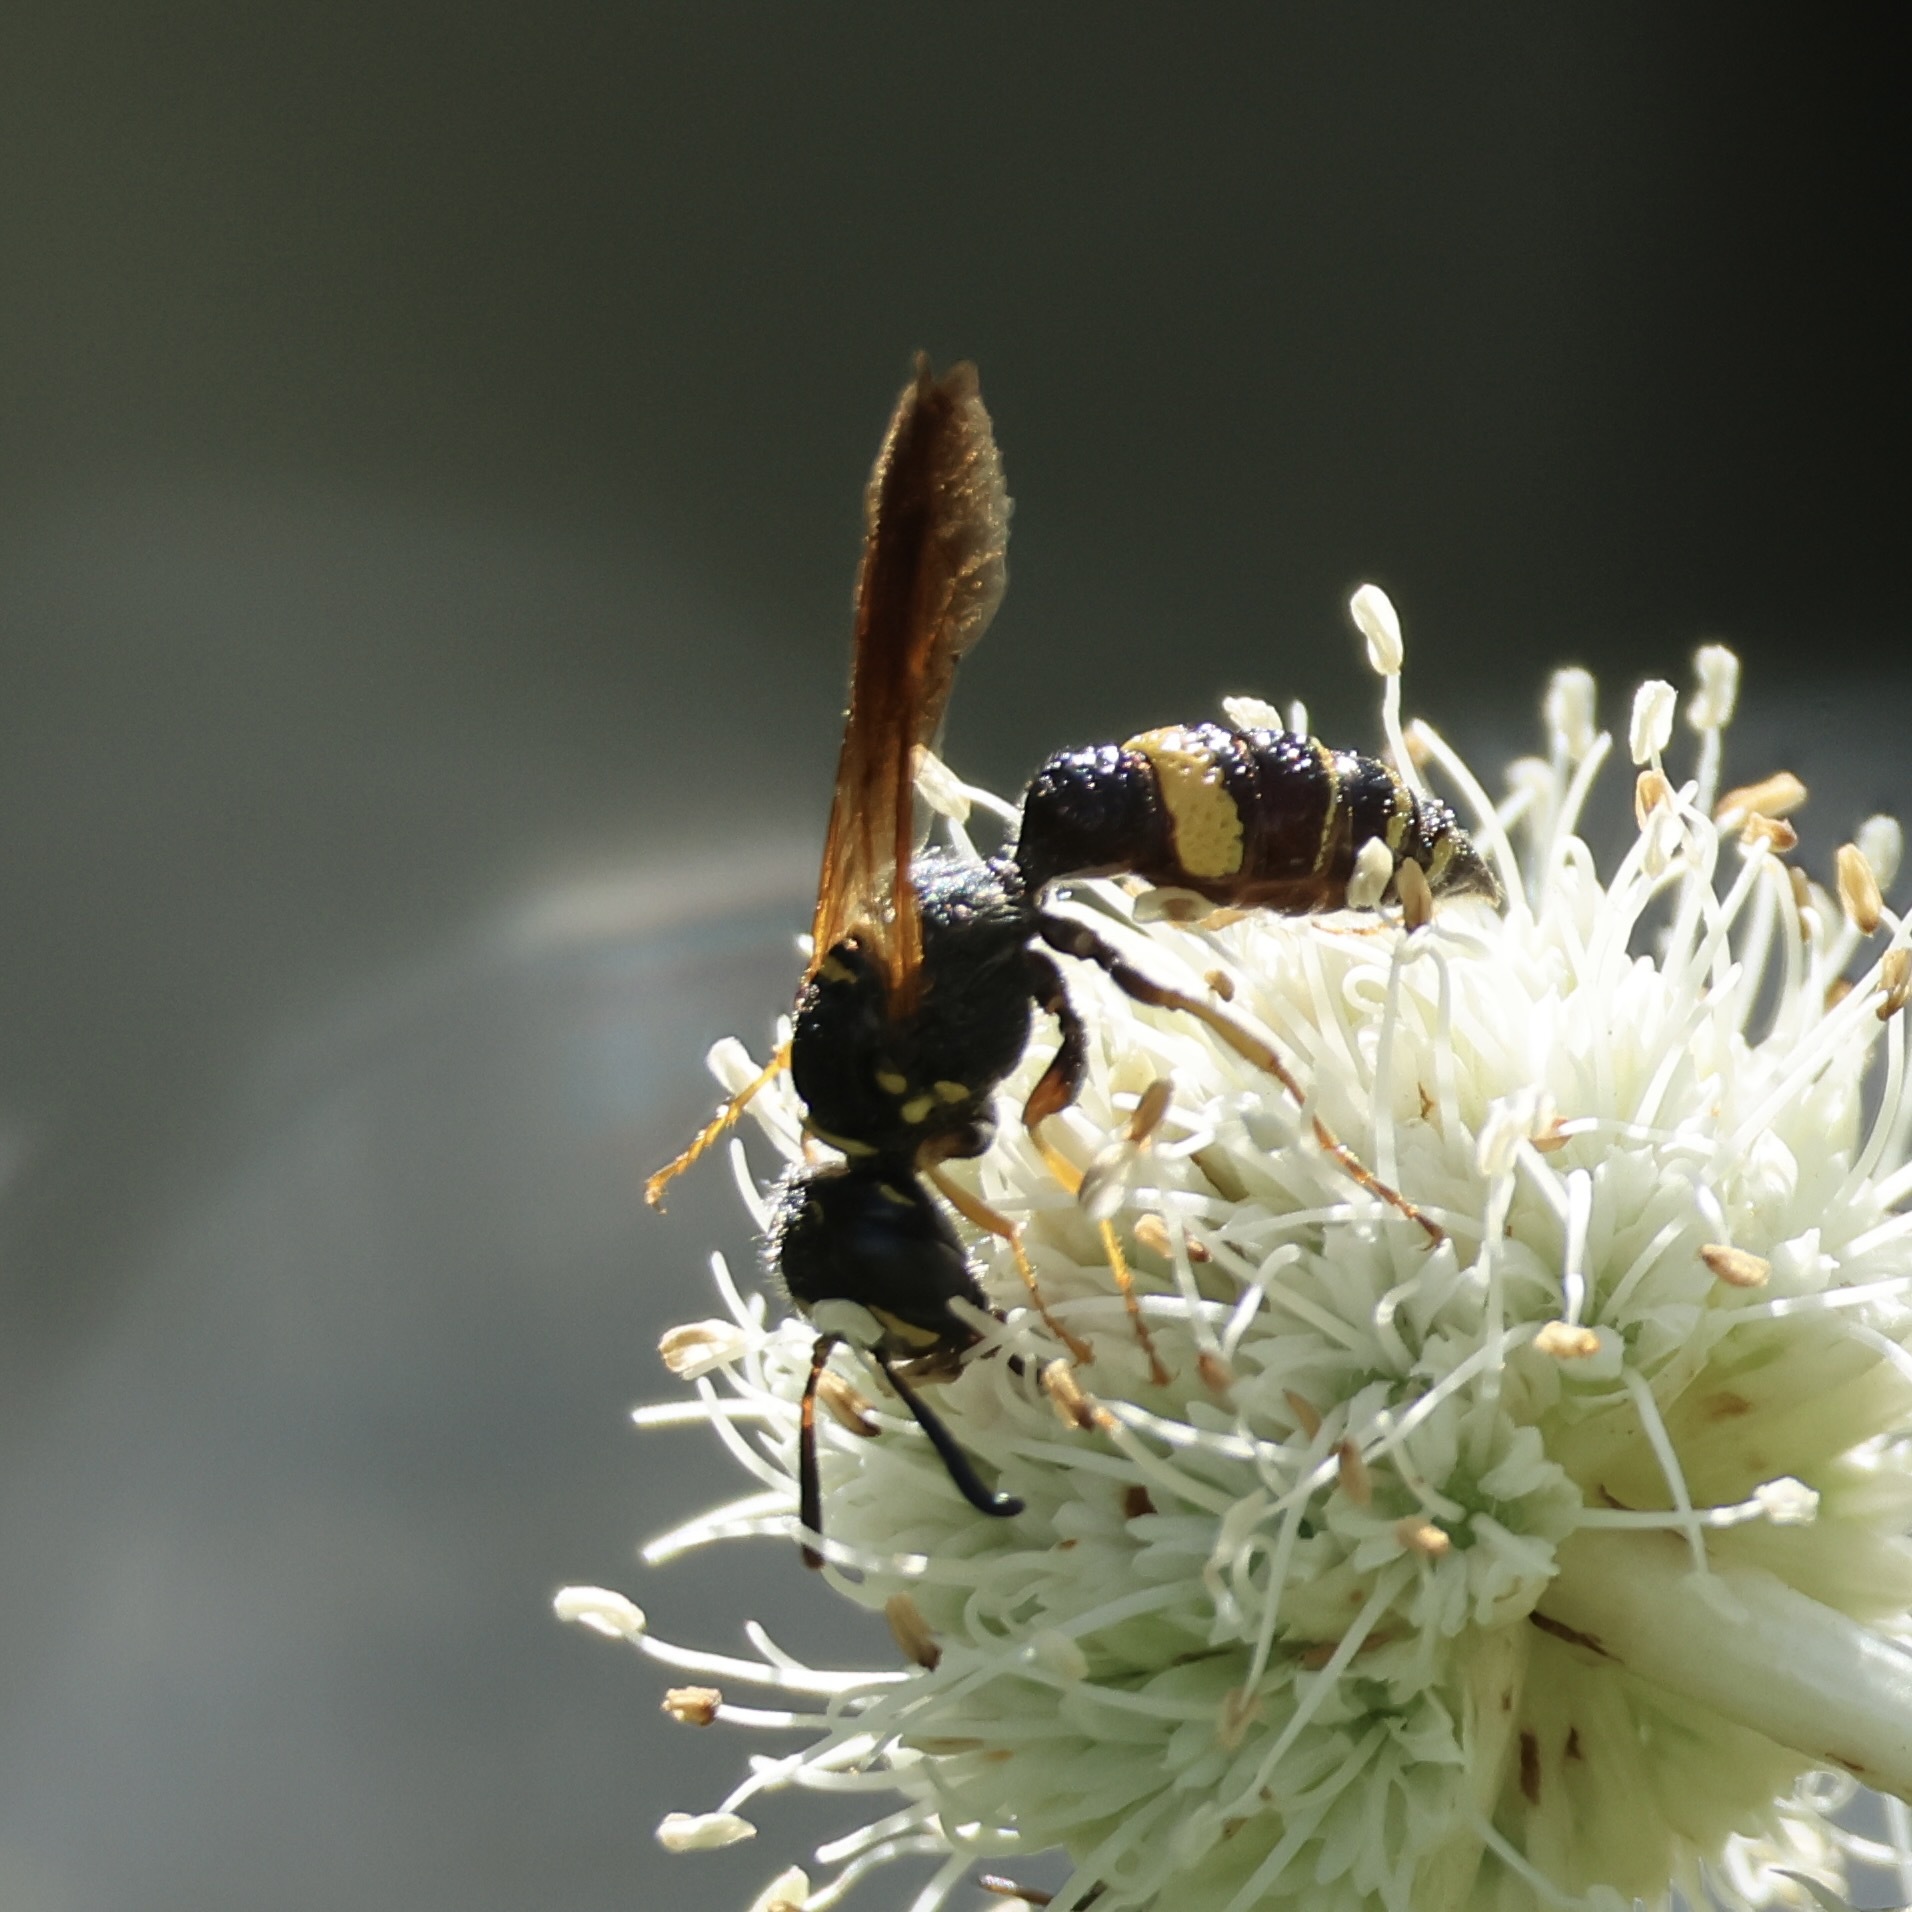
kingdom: Animalia
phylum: Arthropoda
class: Insecta
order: Hymenoptera
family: Crabronidae
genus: Philanthus
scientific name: Philanthus gibbosus
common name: Humped beewolf
